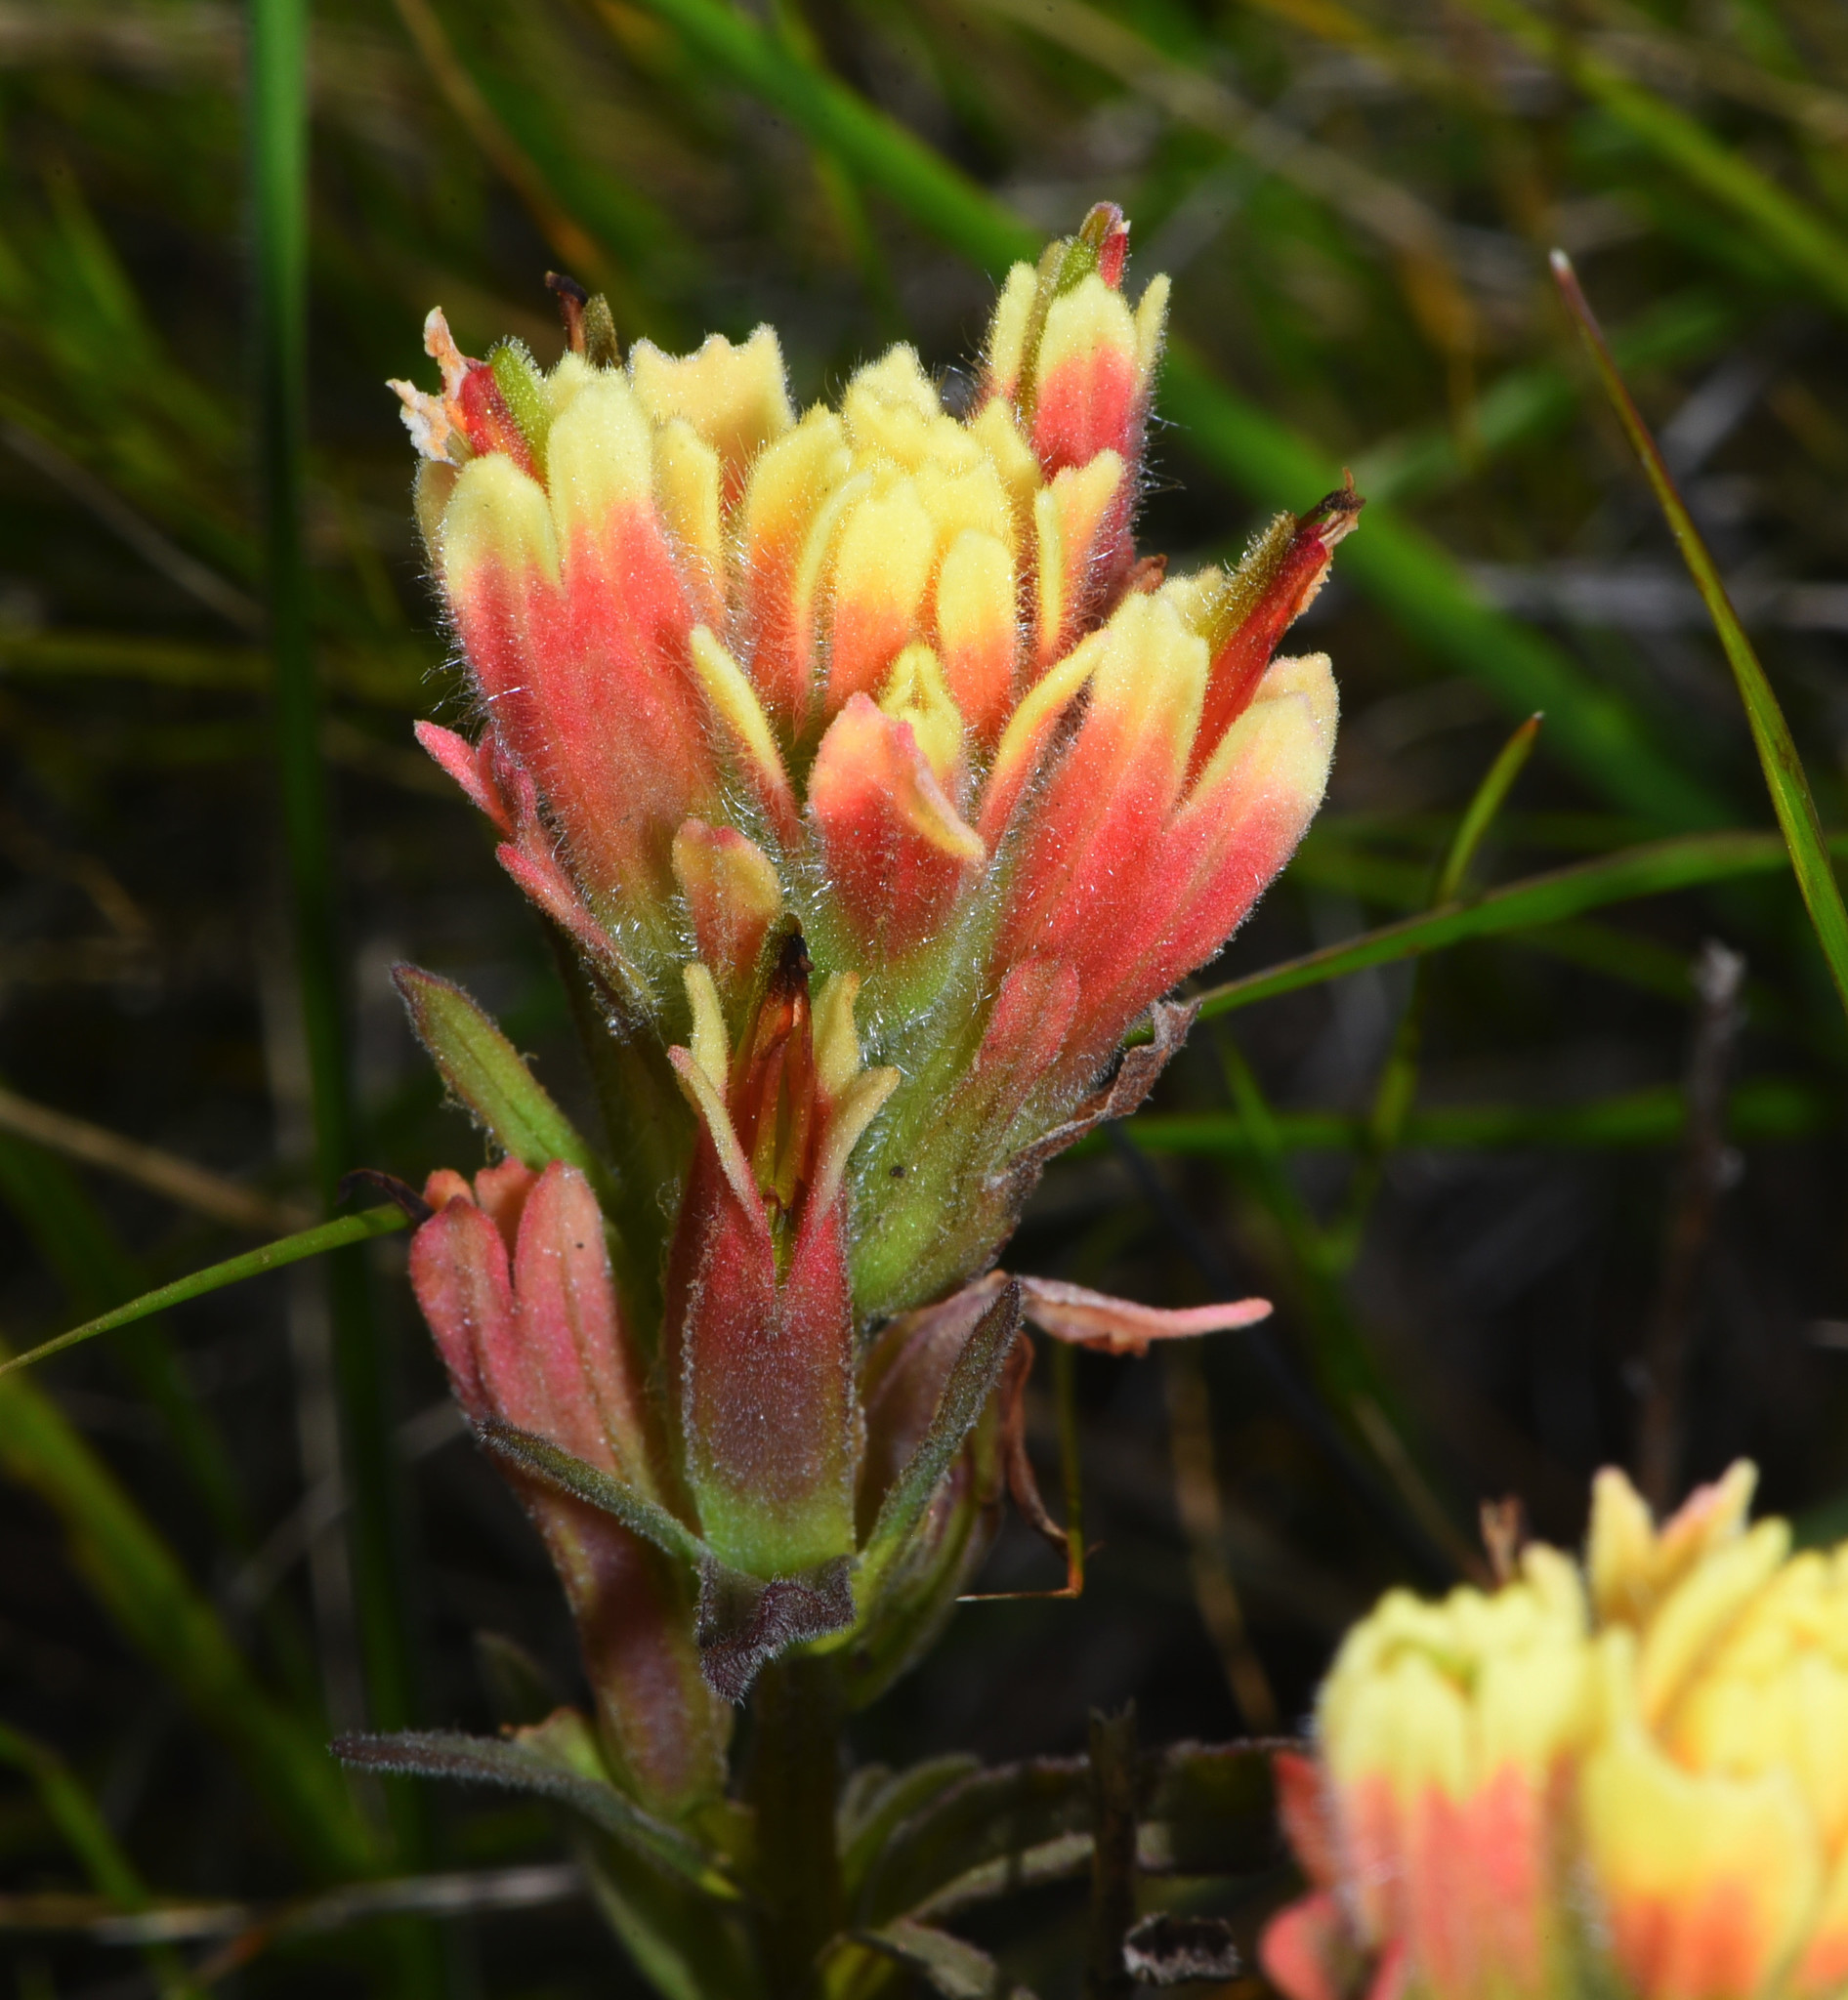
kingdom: Plantae
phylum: Tracheophyta
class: Magnoliopsida
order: Lamiales
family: Orobanchaceae
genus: Castilleja
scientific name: Castilleja affinis
